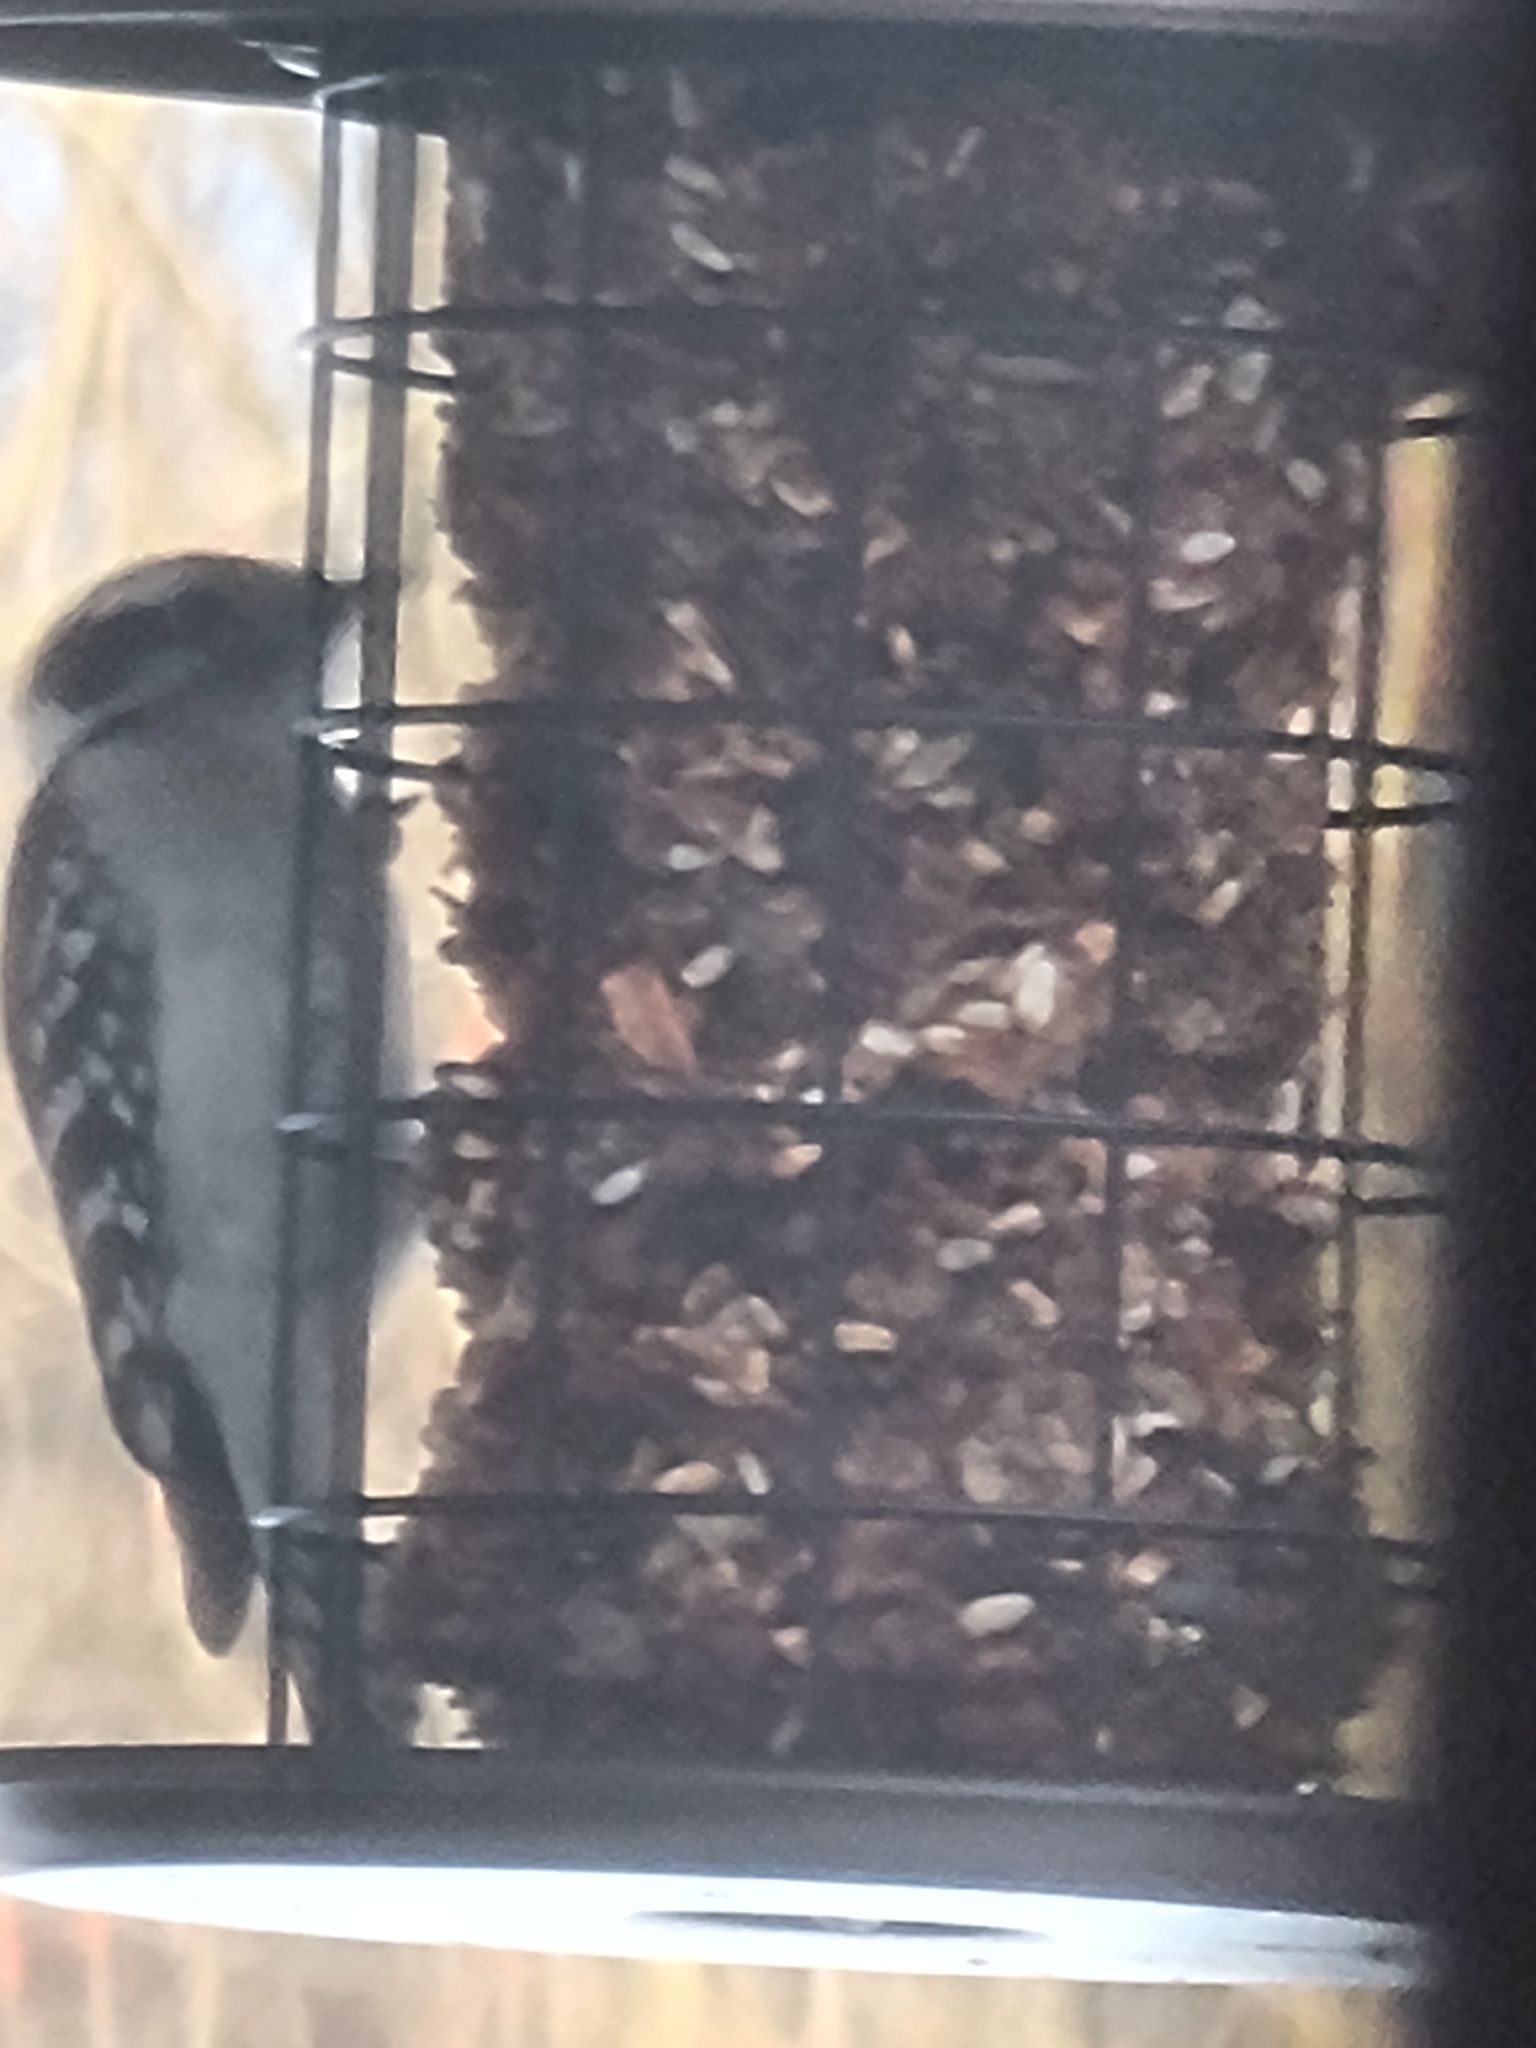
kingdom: Animalia
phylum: Chordata
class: Aves
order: Piciformes
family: Picidae
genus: Dryobates
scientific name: Dryobates pubescens
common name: Downy woodpecker
